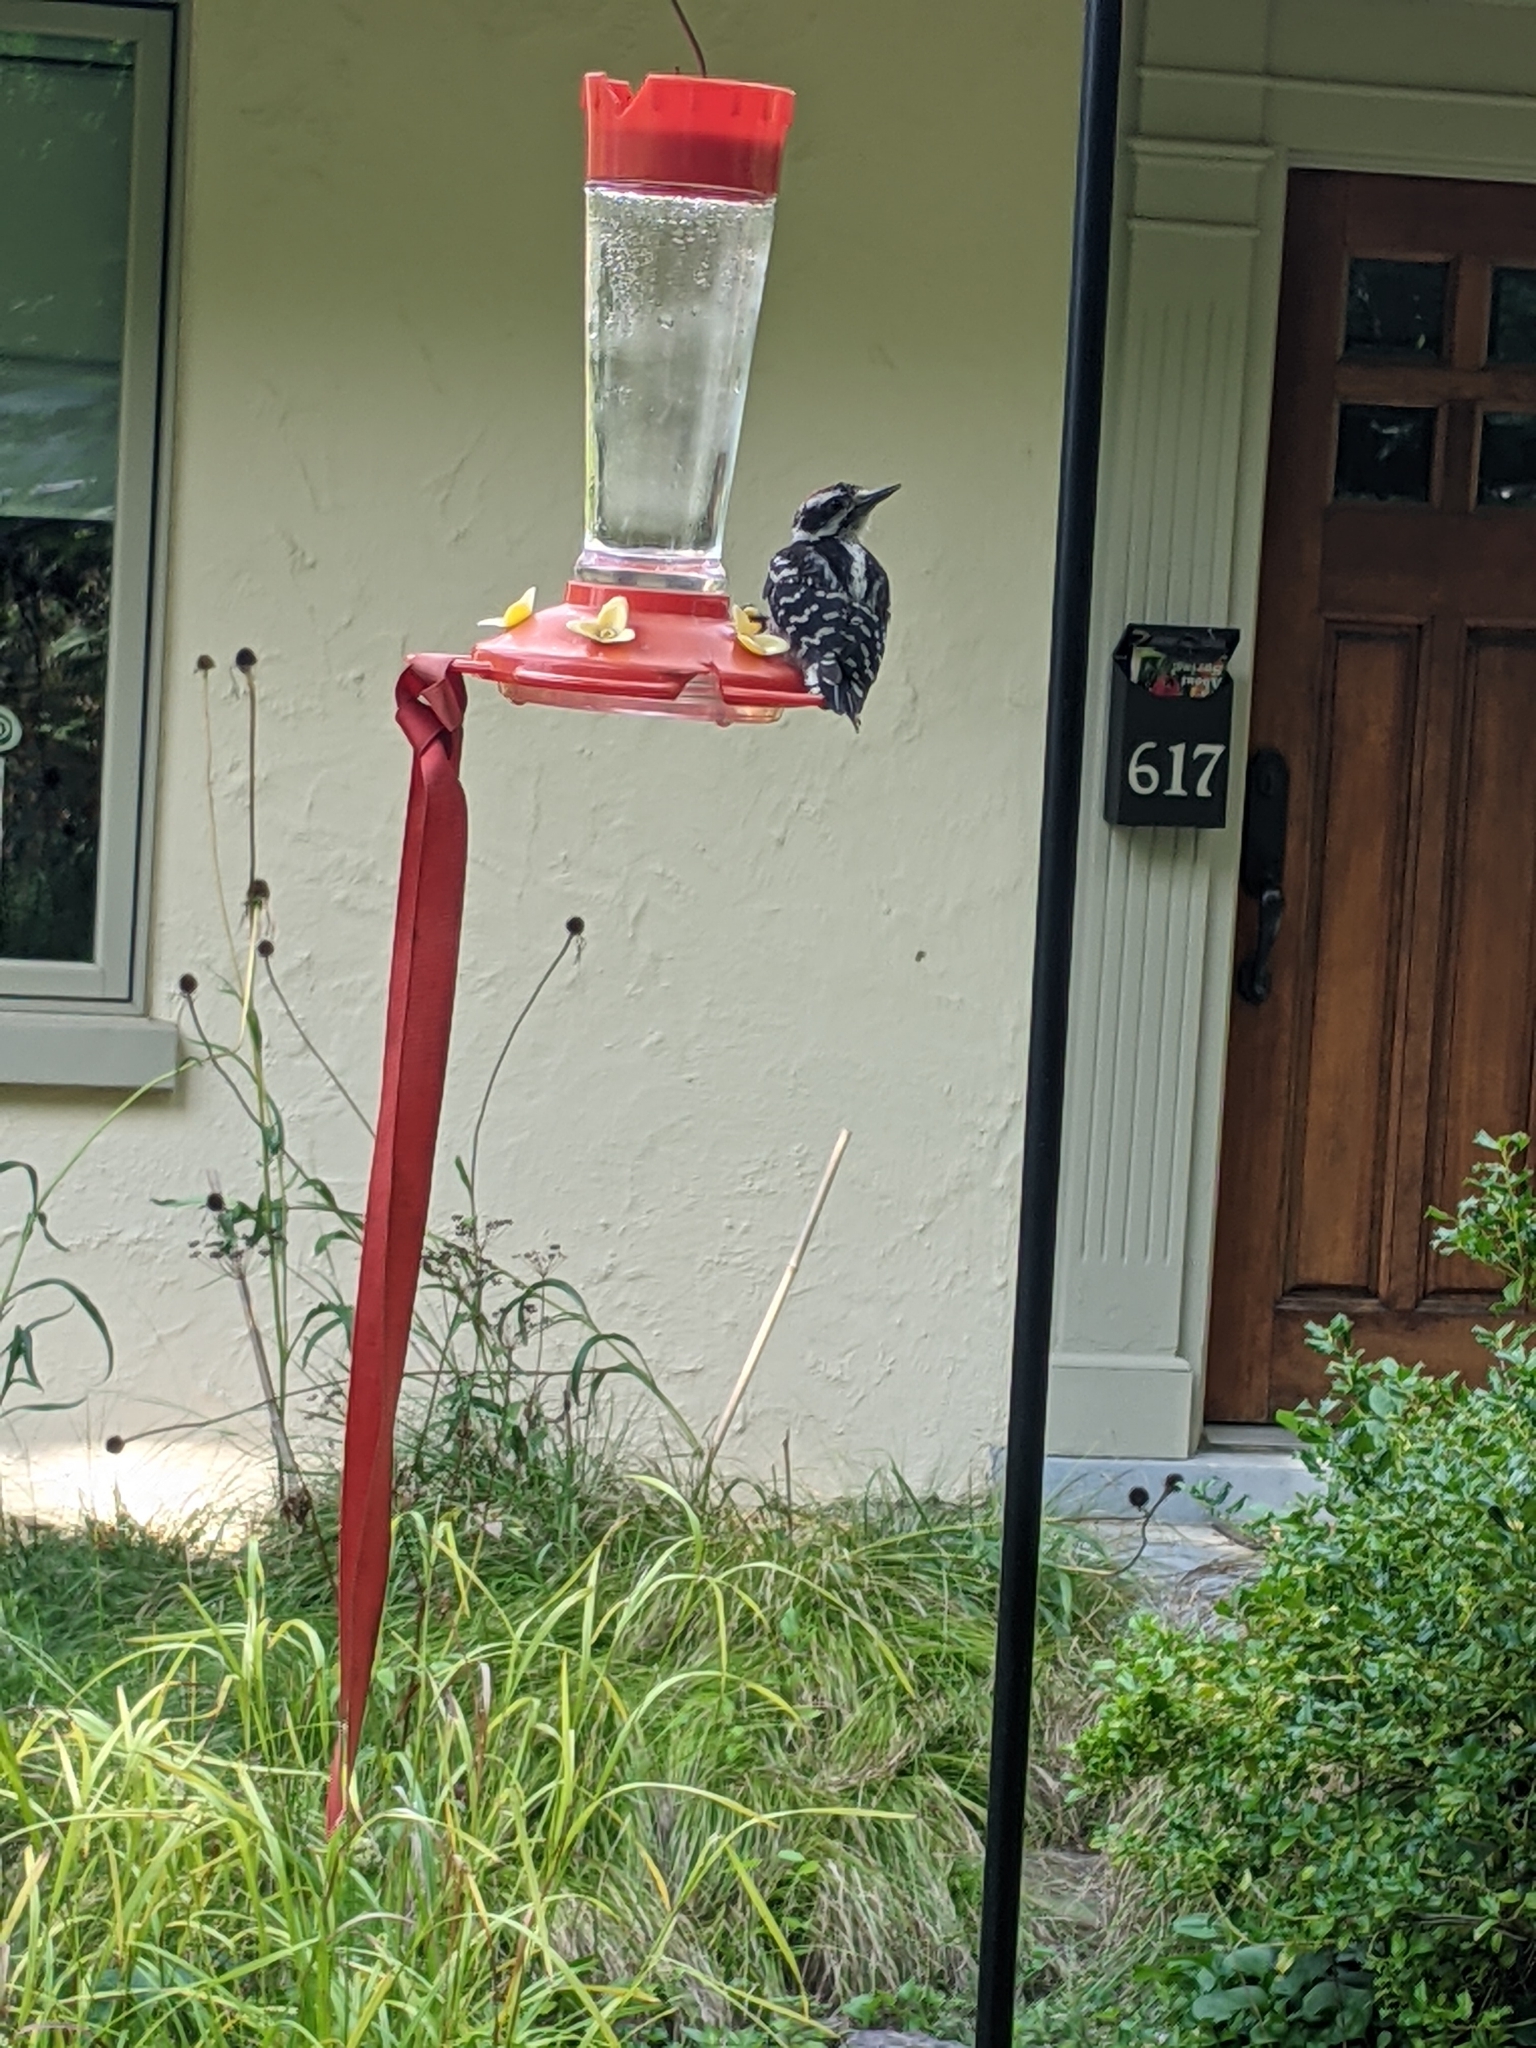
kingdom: Animalia
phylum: Chordata
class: Aves
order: Piciformes
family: Picidae
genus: Leuconotopicus
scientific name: Leuconotopicus villosus
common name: Hairy woodpecker
